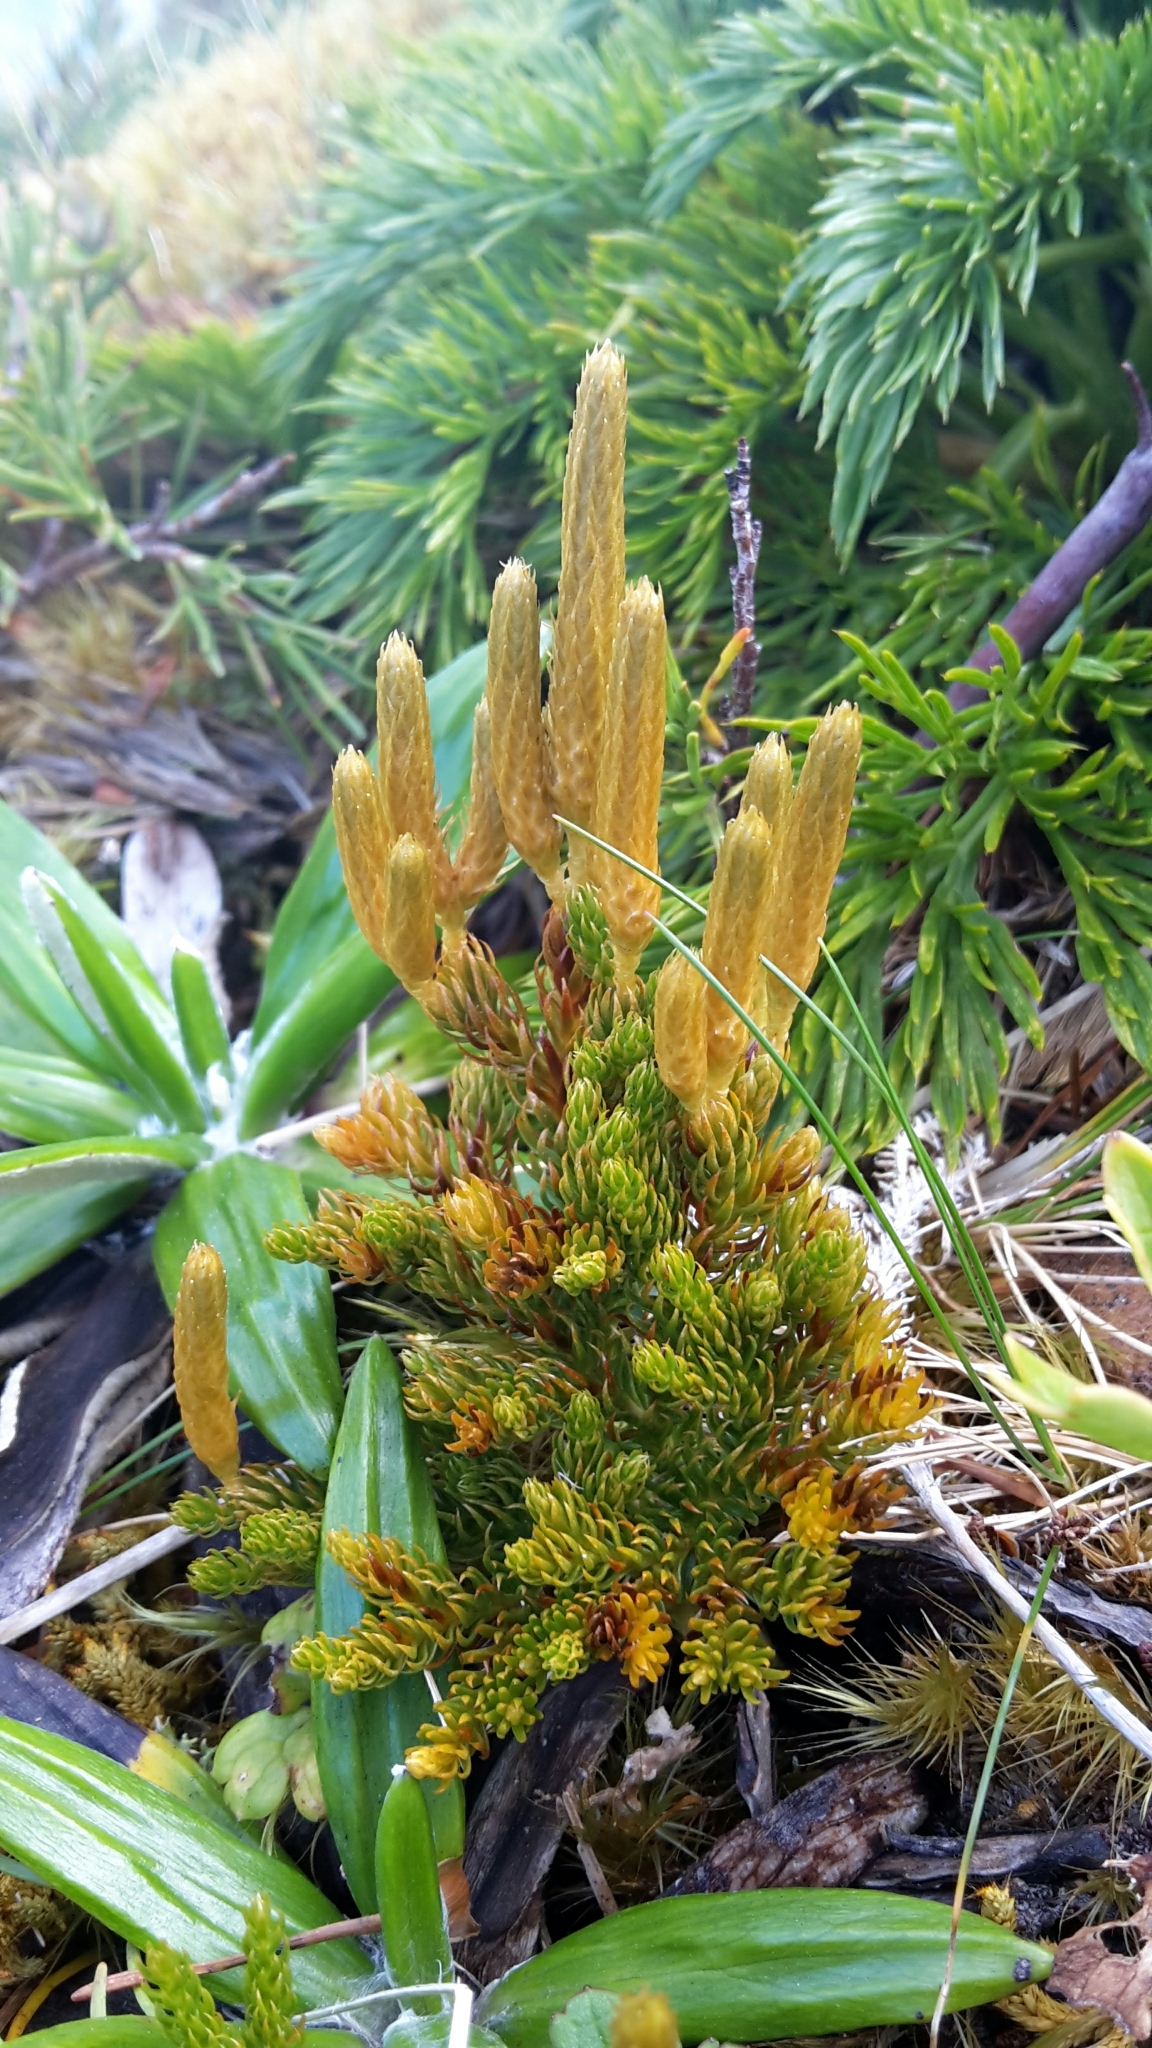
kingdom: Plantae
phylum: Tracheophyta
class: Lycopodiopsida
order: Lycopodiales
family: Lycopodiaceae
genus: Austrolycopodium
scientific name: Austrolycopodium fastigiatum
